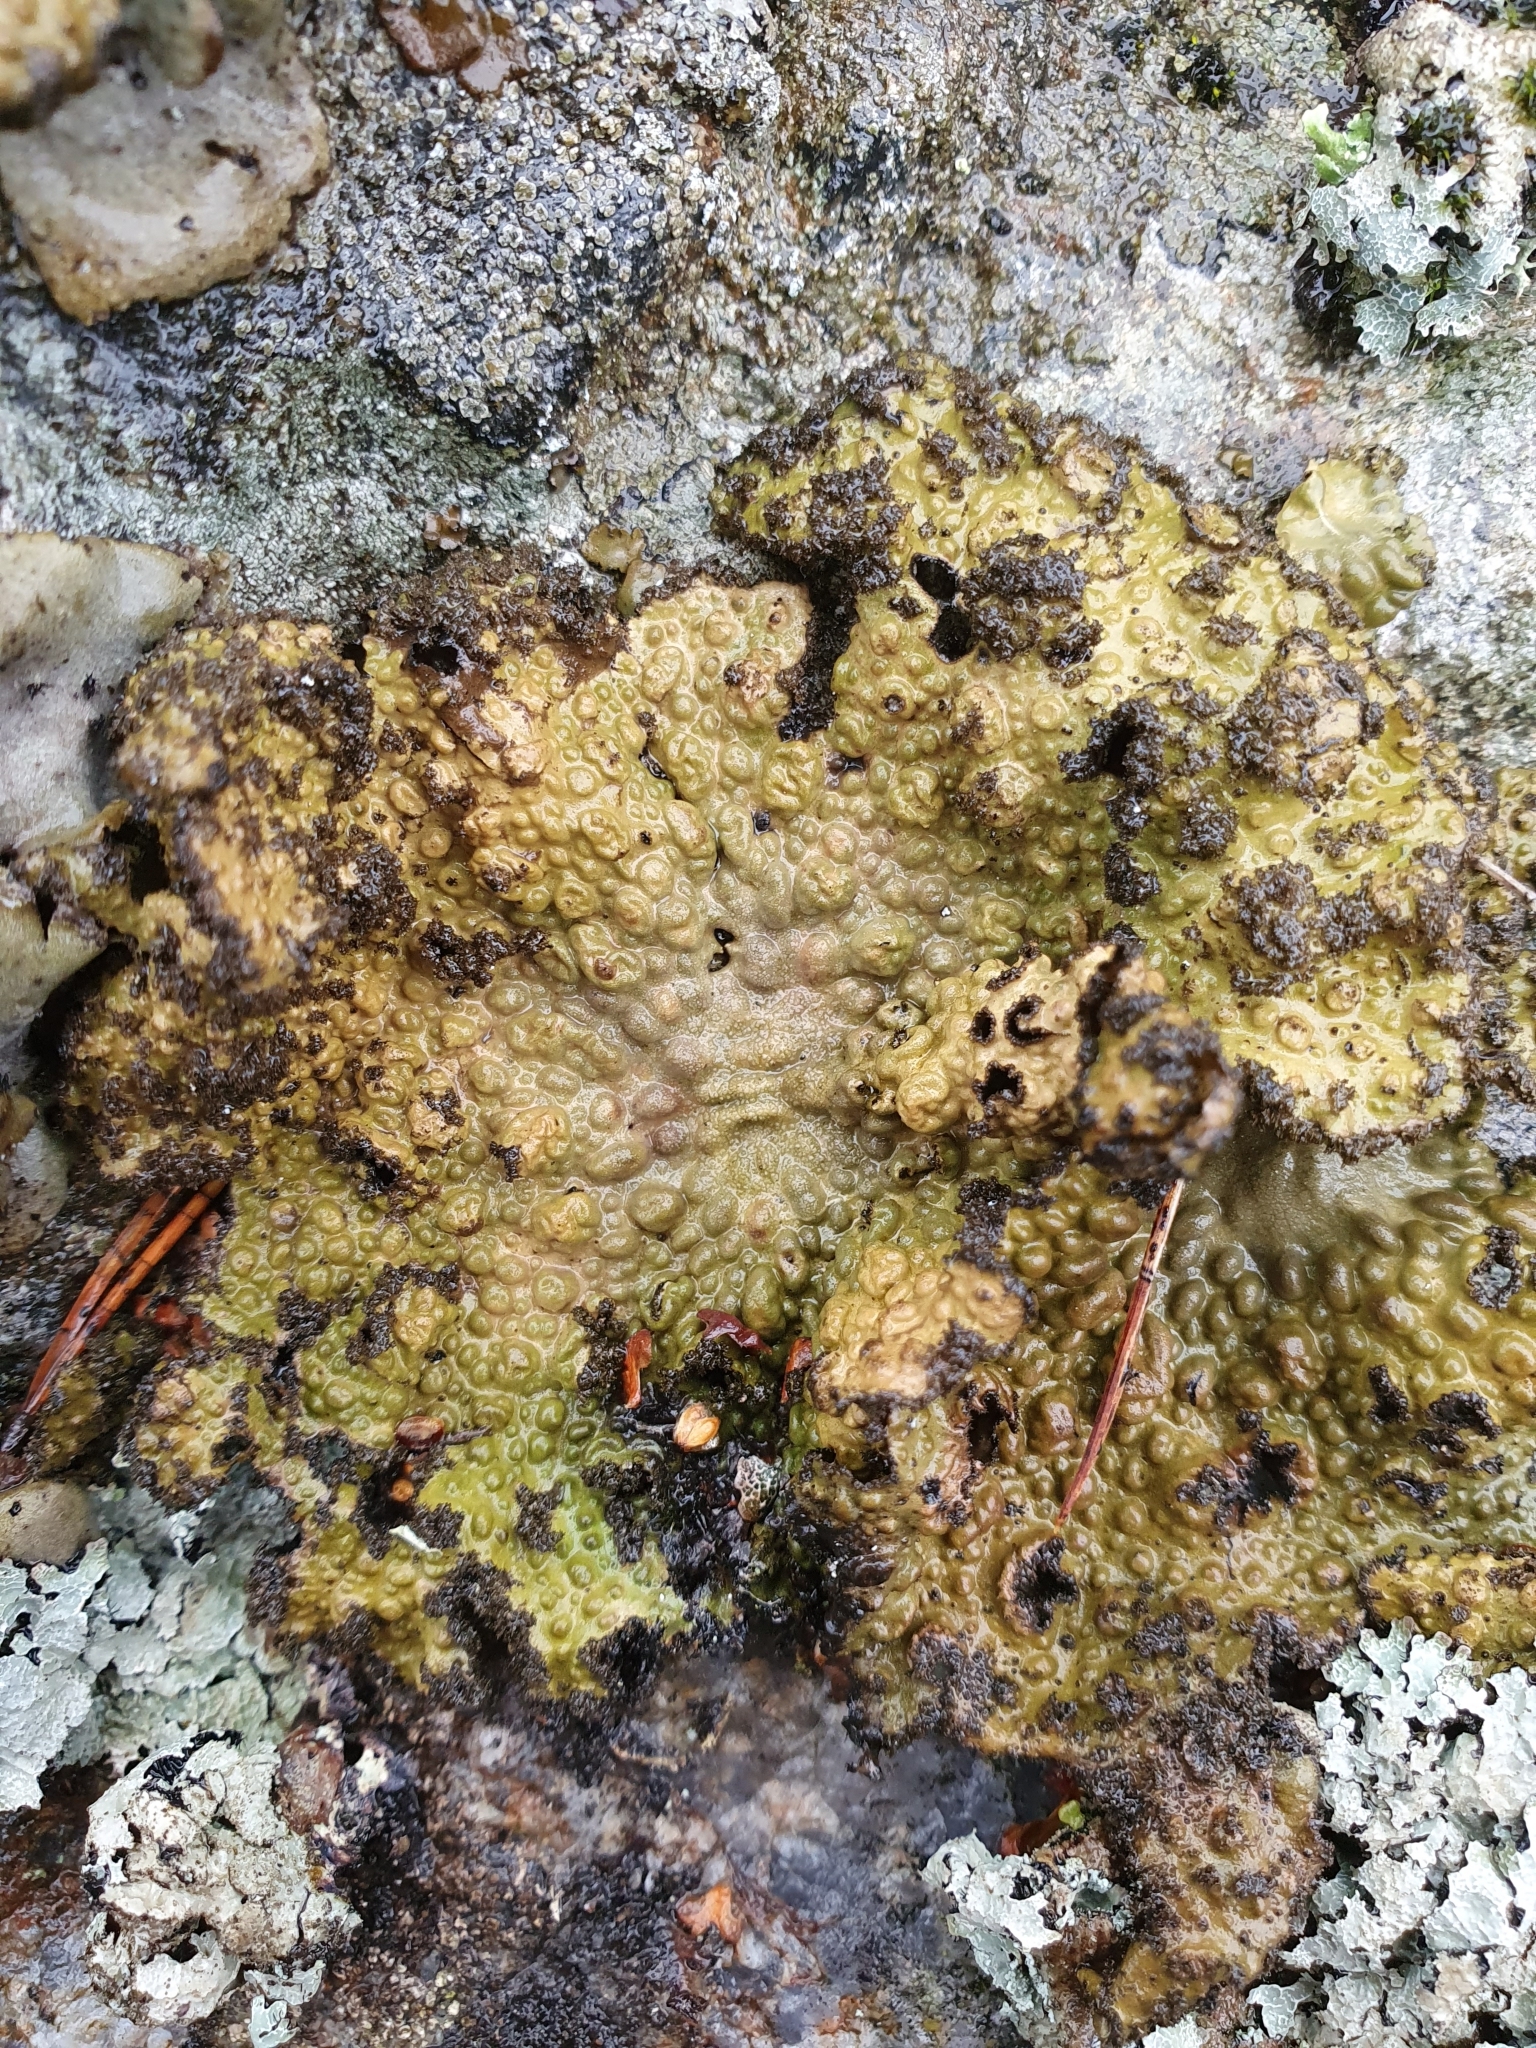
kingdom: Fungi
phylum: Ascomycota
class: Lecanoromycetes
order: Umbilicariales
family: Umbilicariaceae
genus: Lasallia
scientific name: Lasallia pustulata
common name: Blistered toadskin lichen
